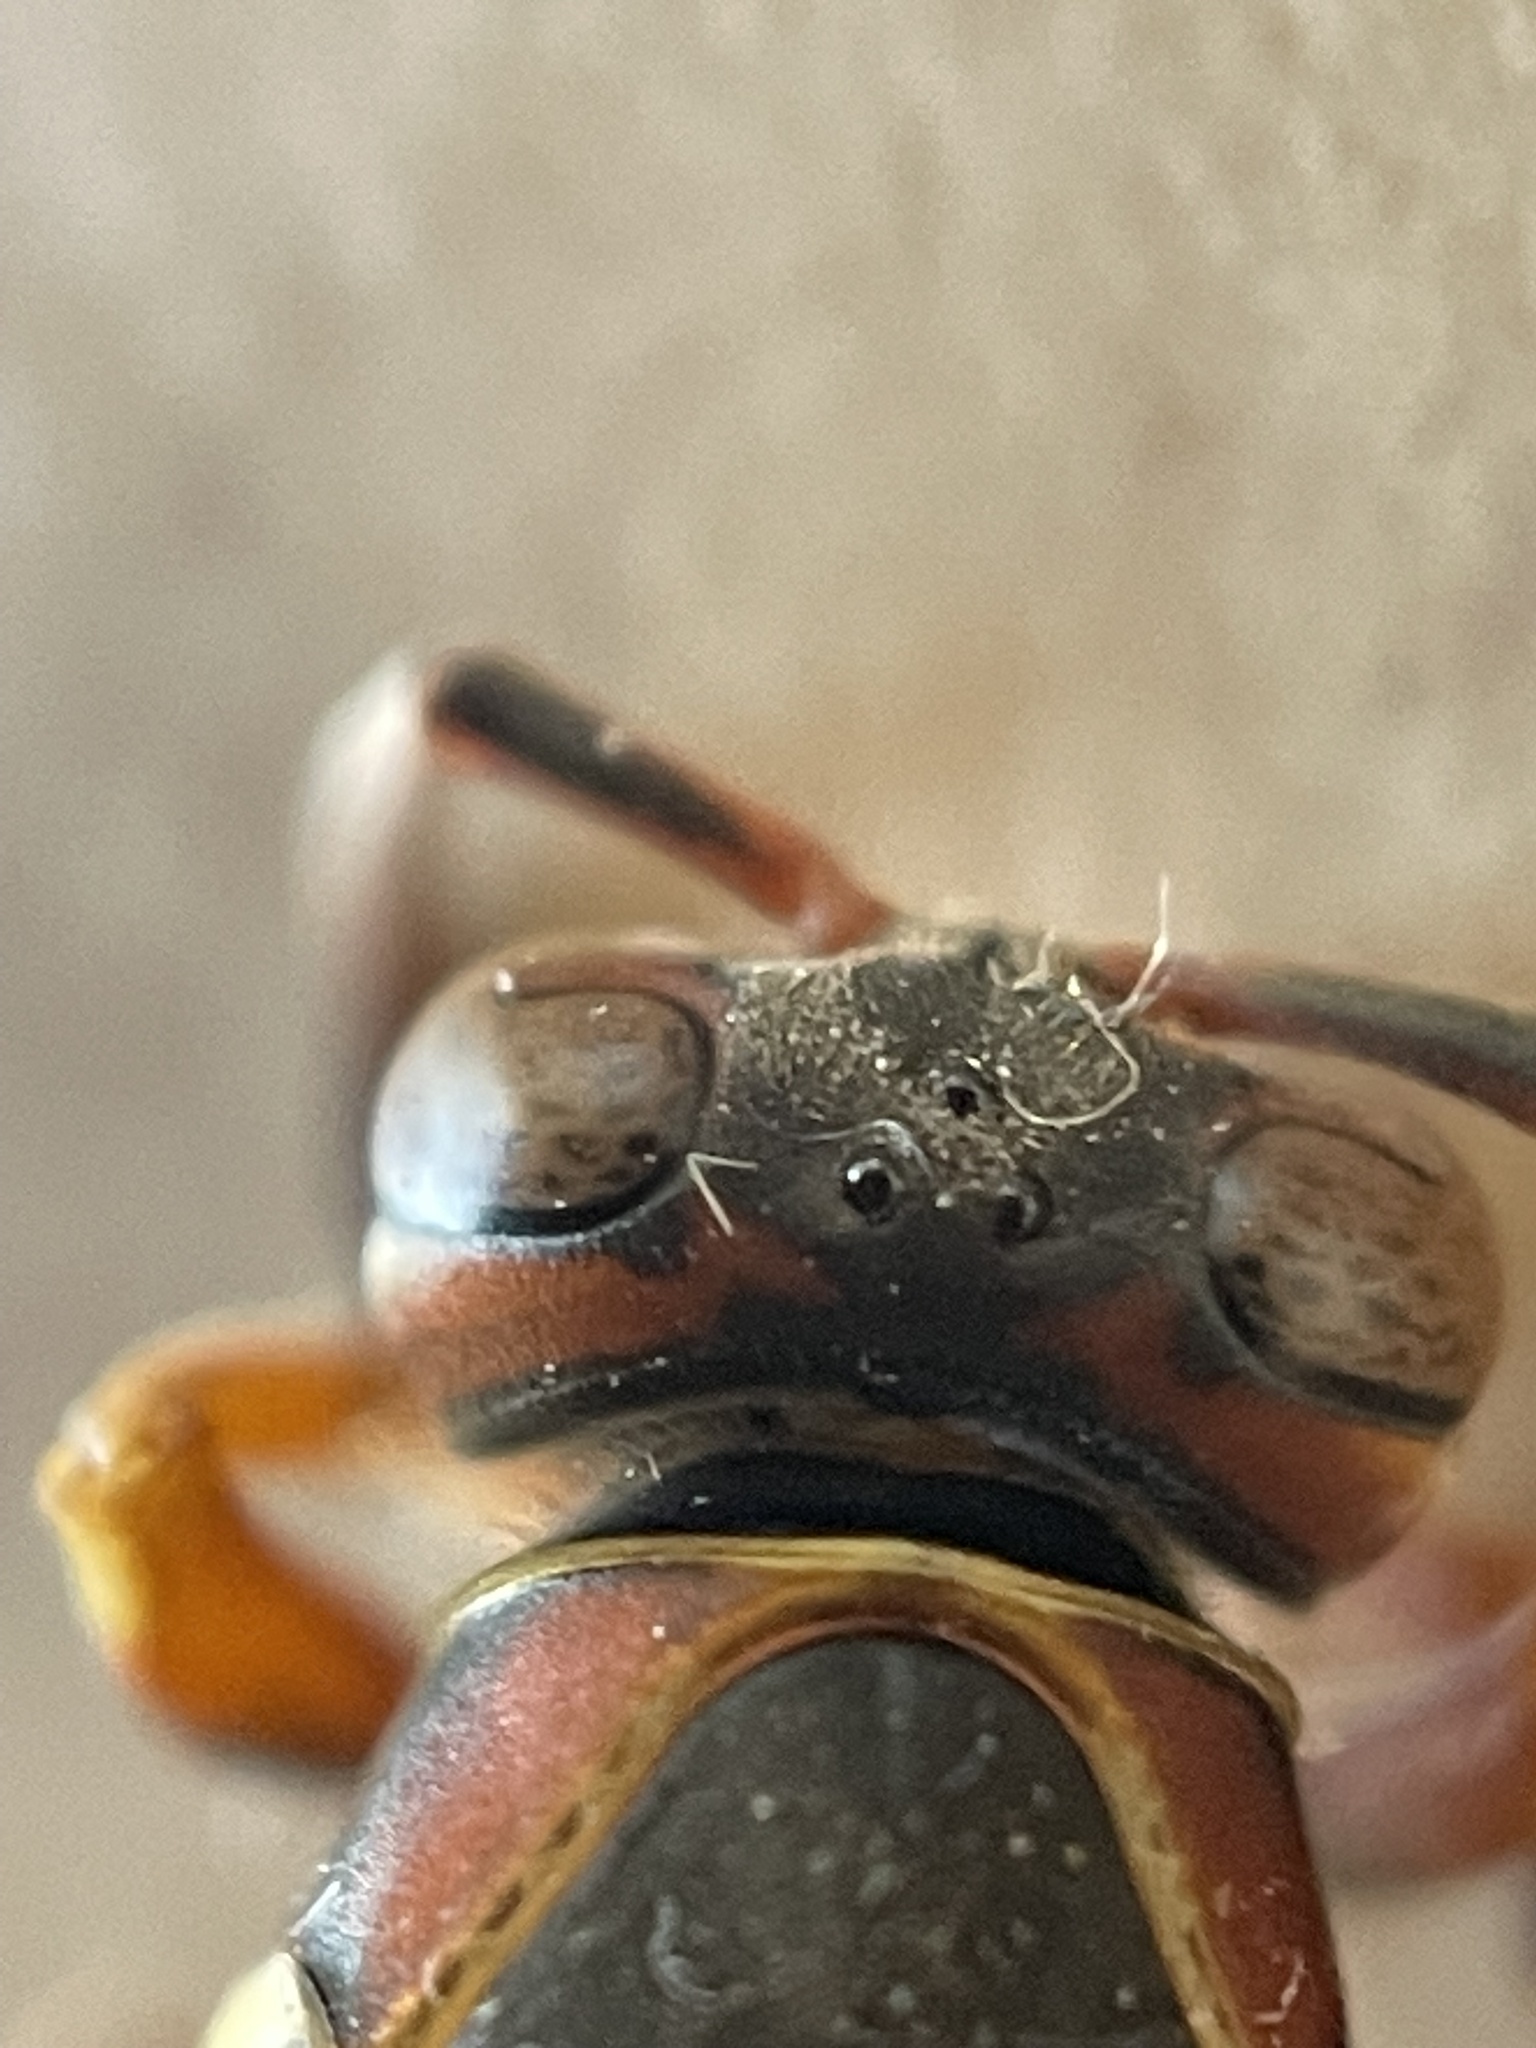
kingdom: Animalia
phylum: Arthropoda
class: Insecta
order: Hymenoptera
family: Eumenidae
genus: Polistes
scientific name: Polistes fuscatus
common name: Dark paper wasp
